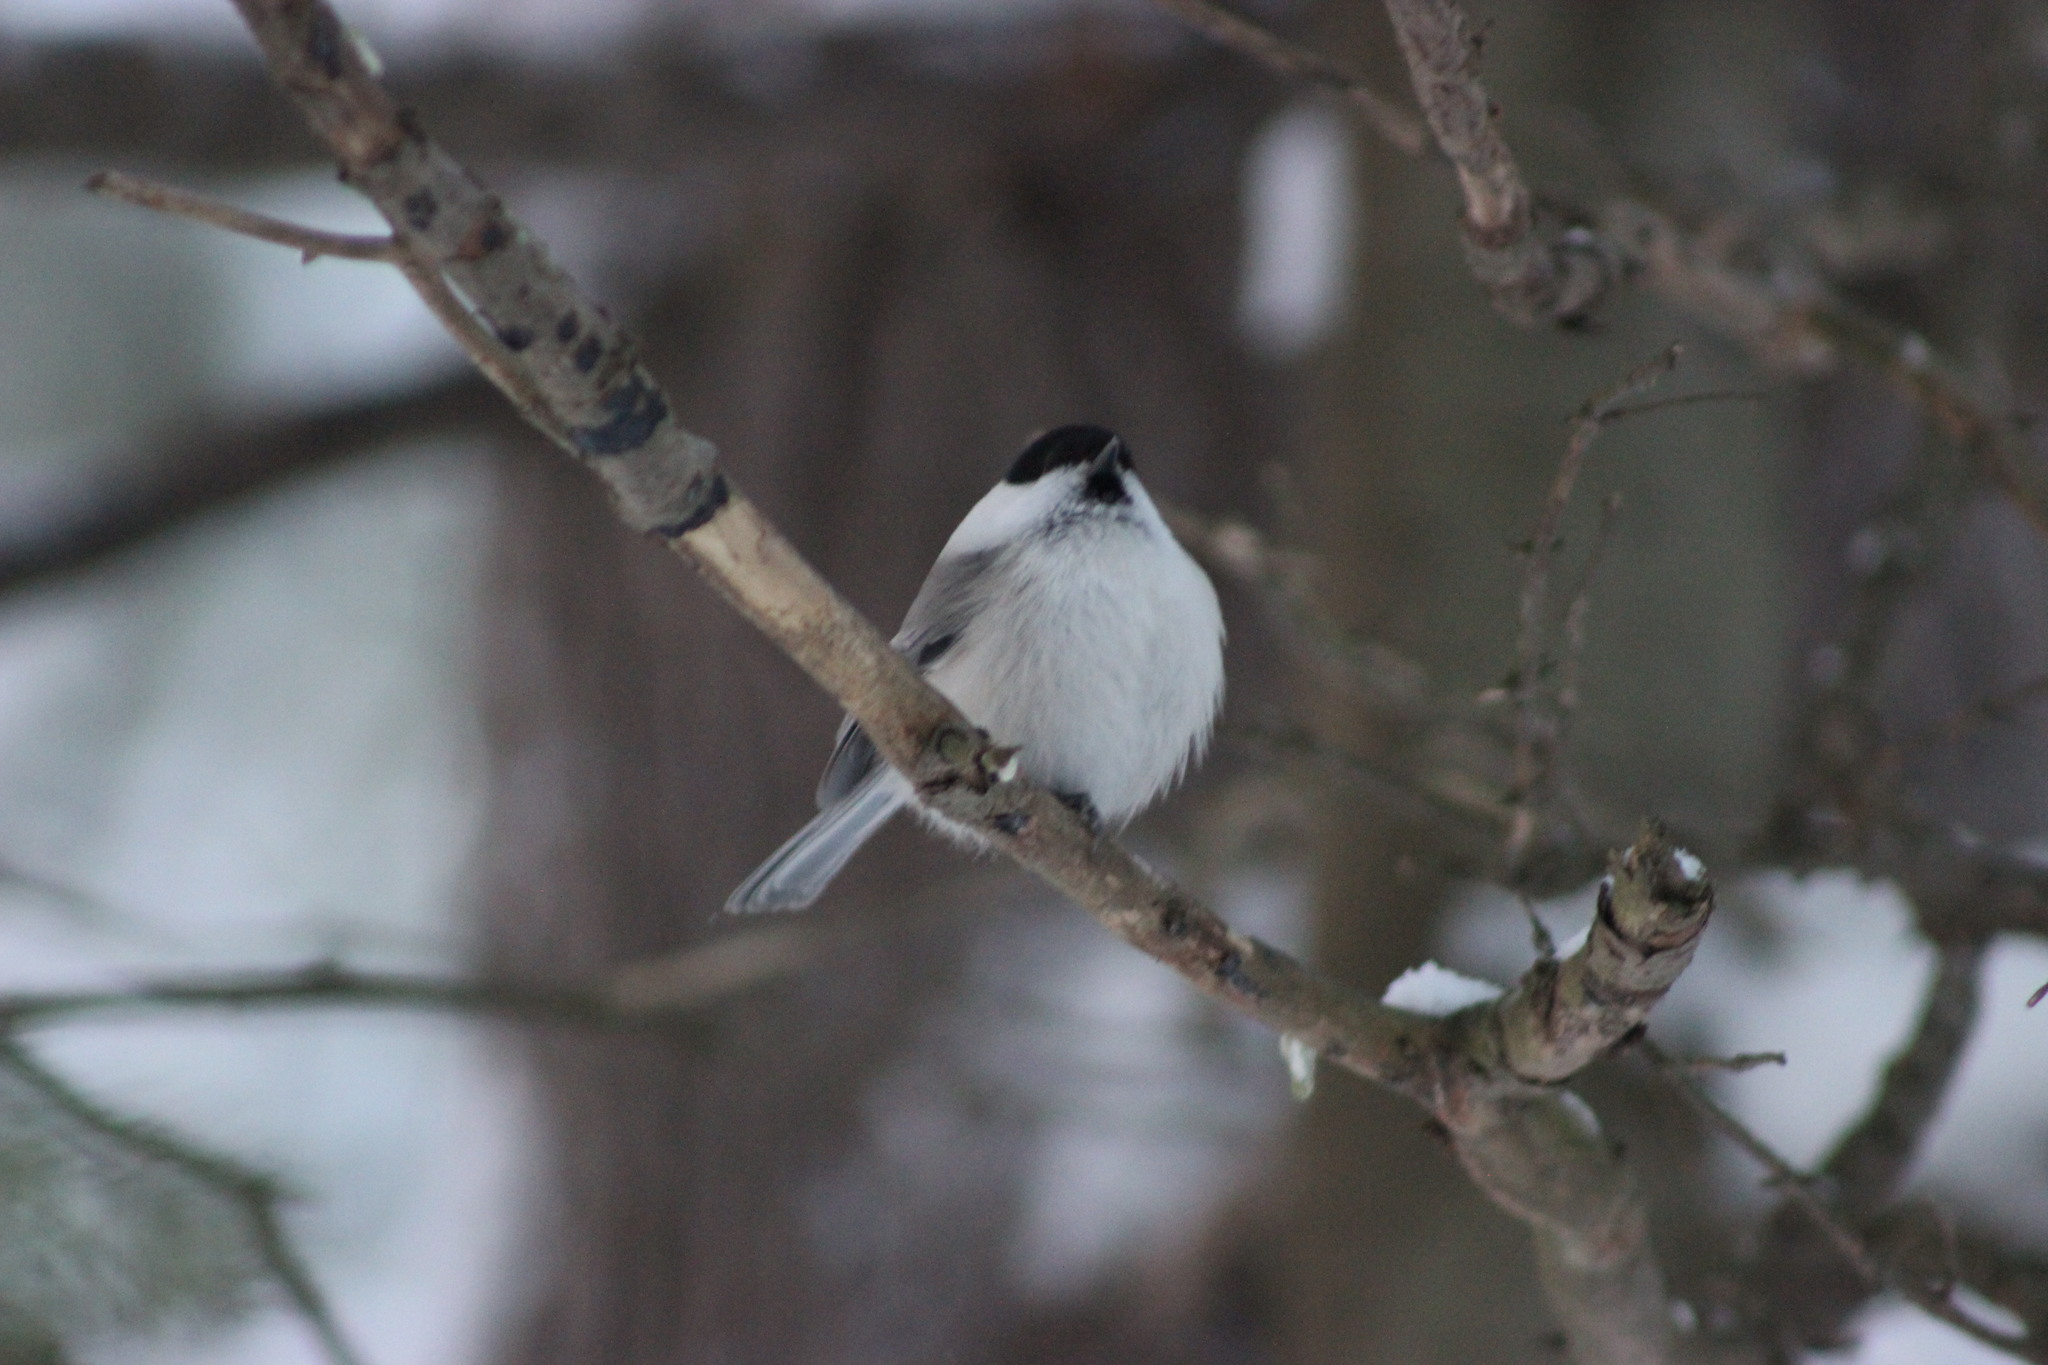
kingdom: Animalia
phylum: Chordata
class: Aves
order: Passeriformes
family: Paridae
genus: Poecile
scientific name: Poecile montanus
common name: Willow tit
